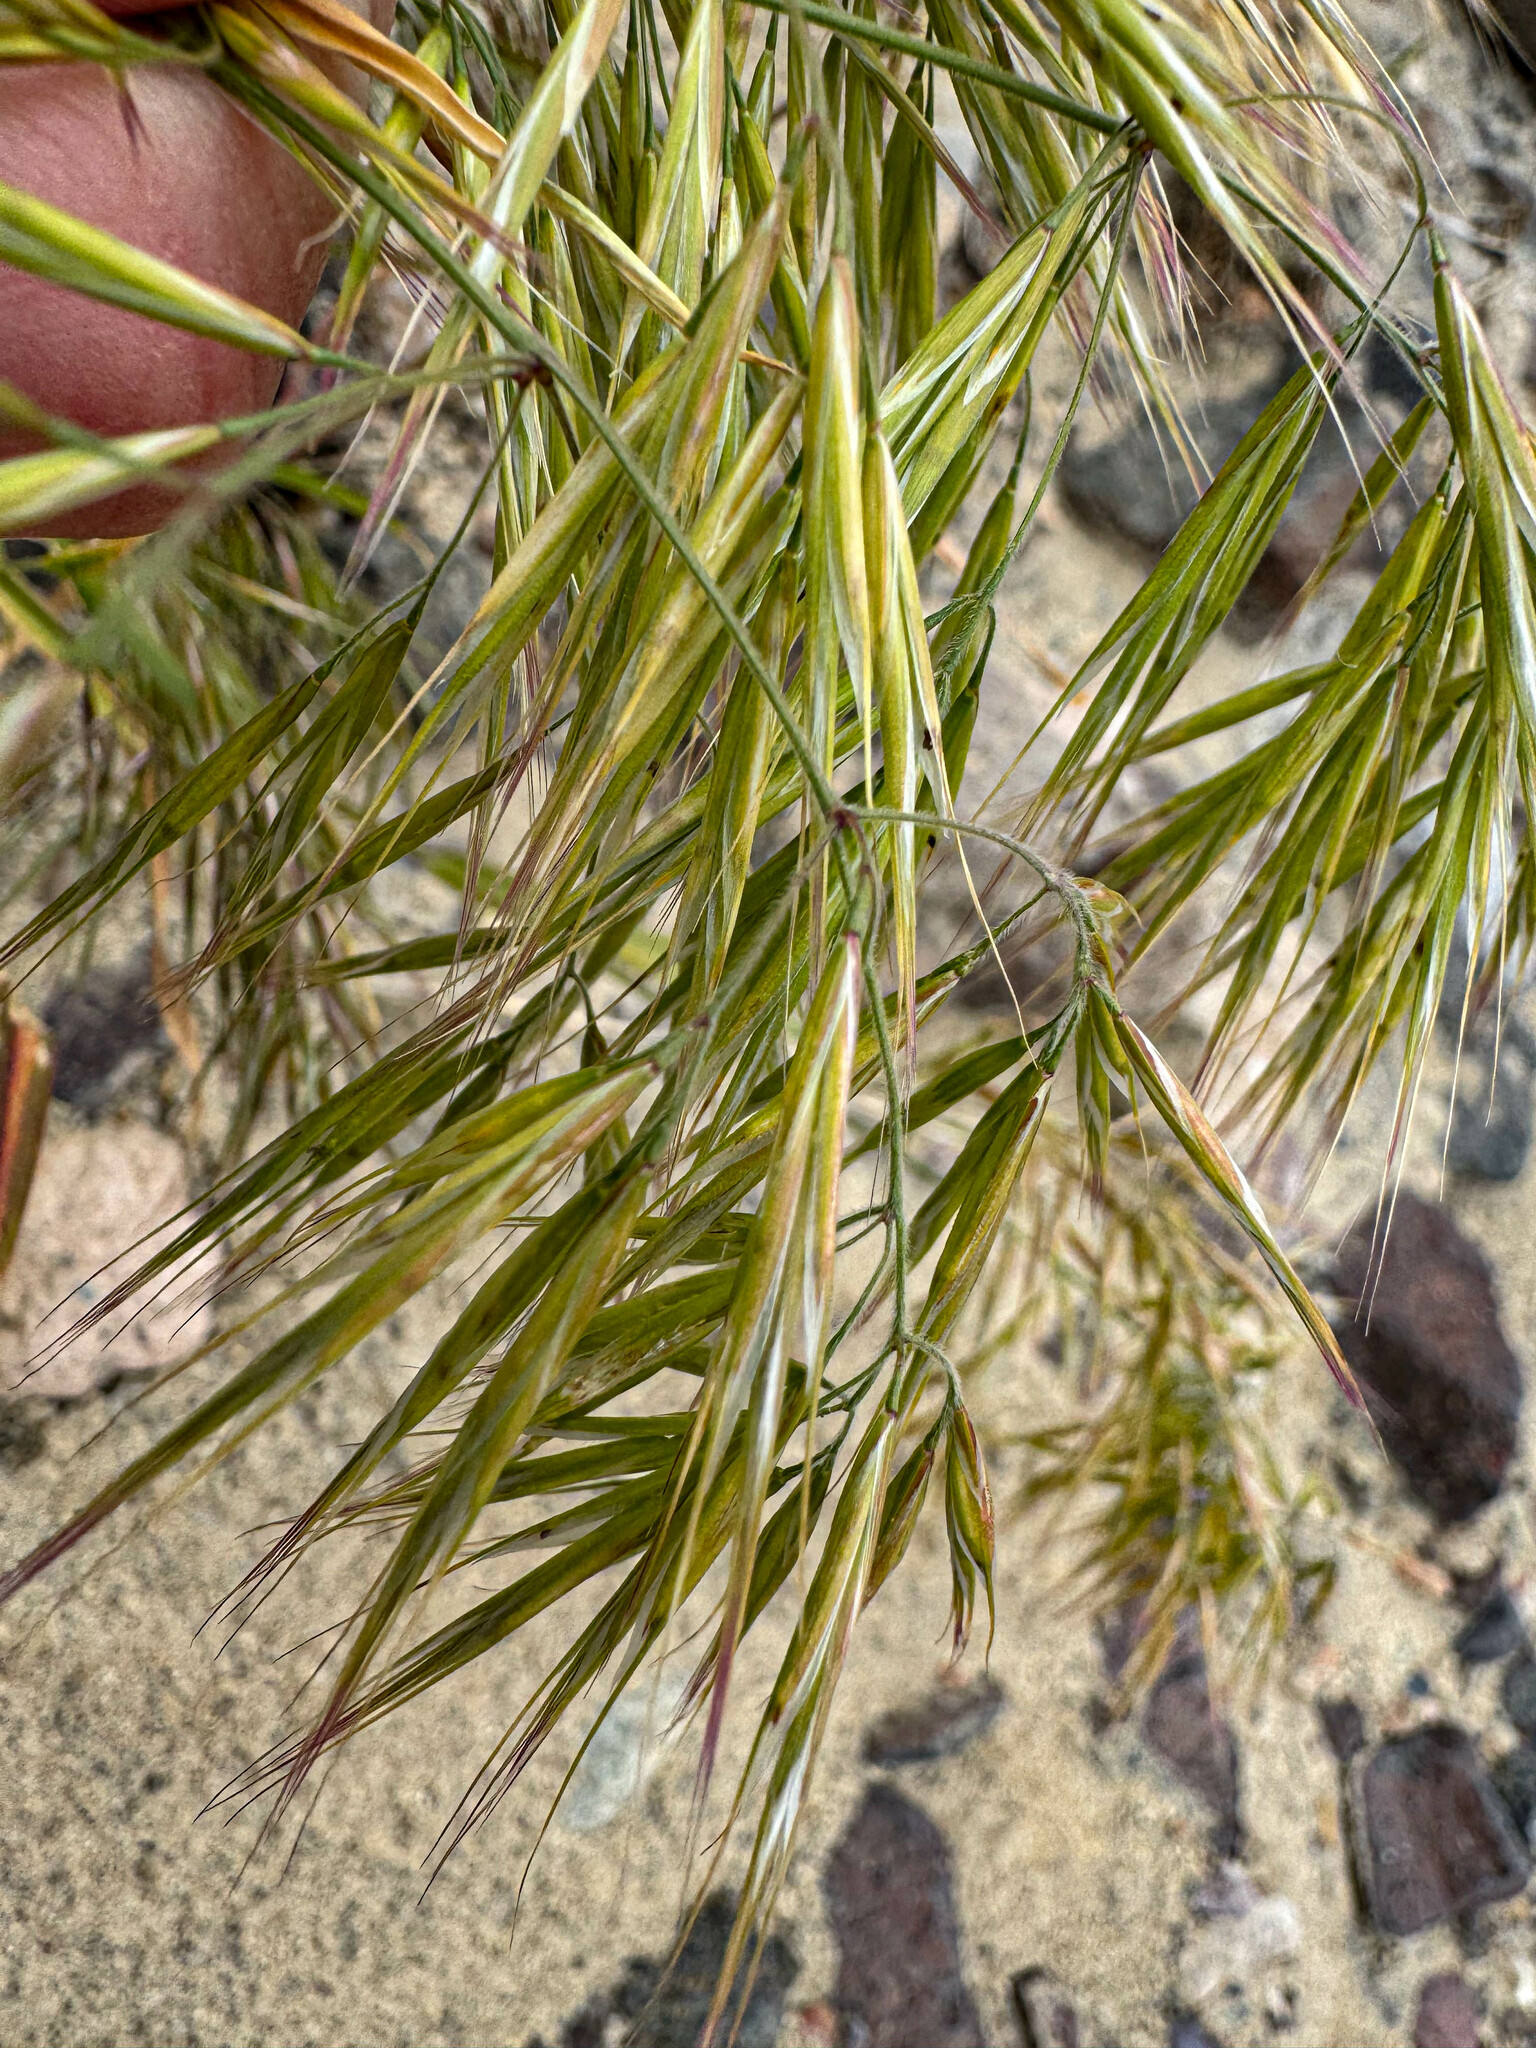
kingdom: Plantae
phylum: Tracheophyta
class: Liliopsida
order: Poales
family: Poaceae
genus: Bromus
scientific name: Bromus tectorum
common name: Cheatgrass
